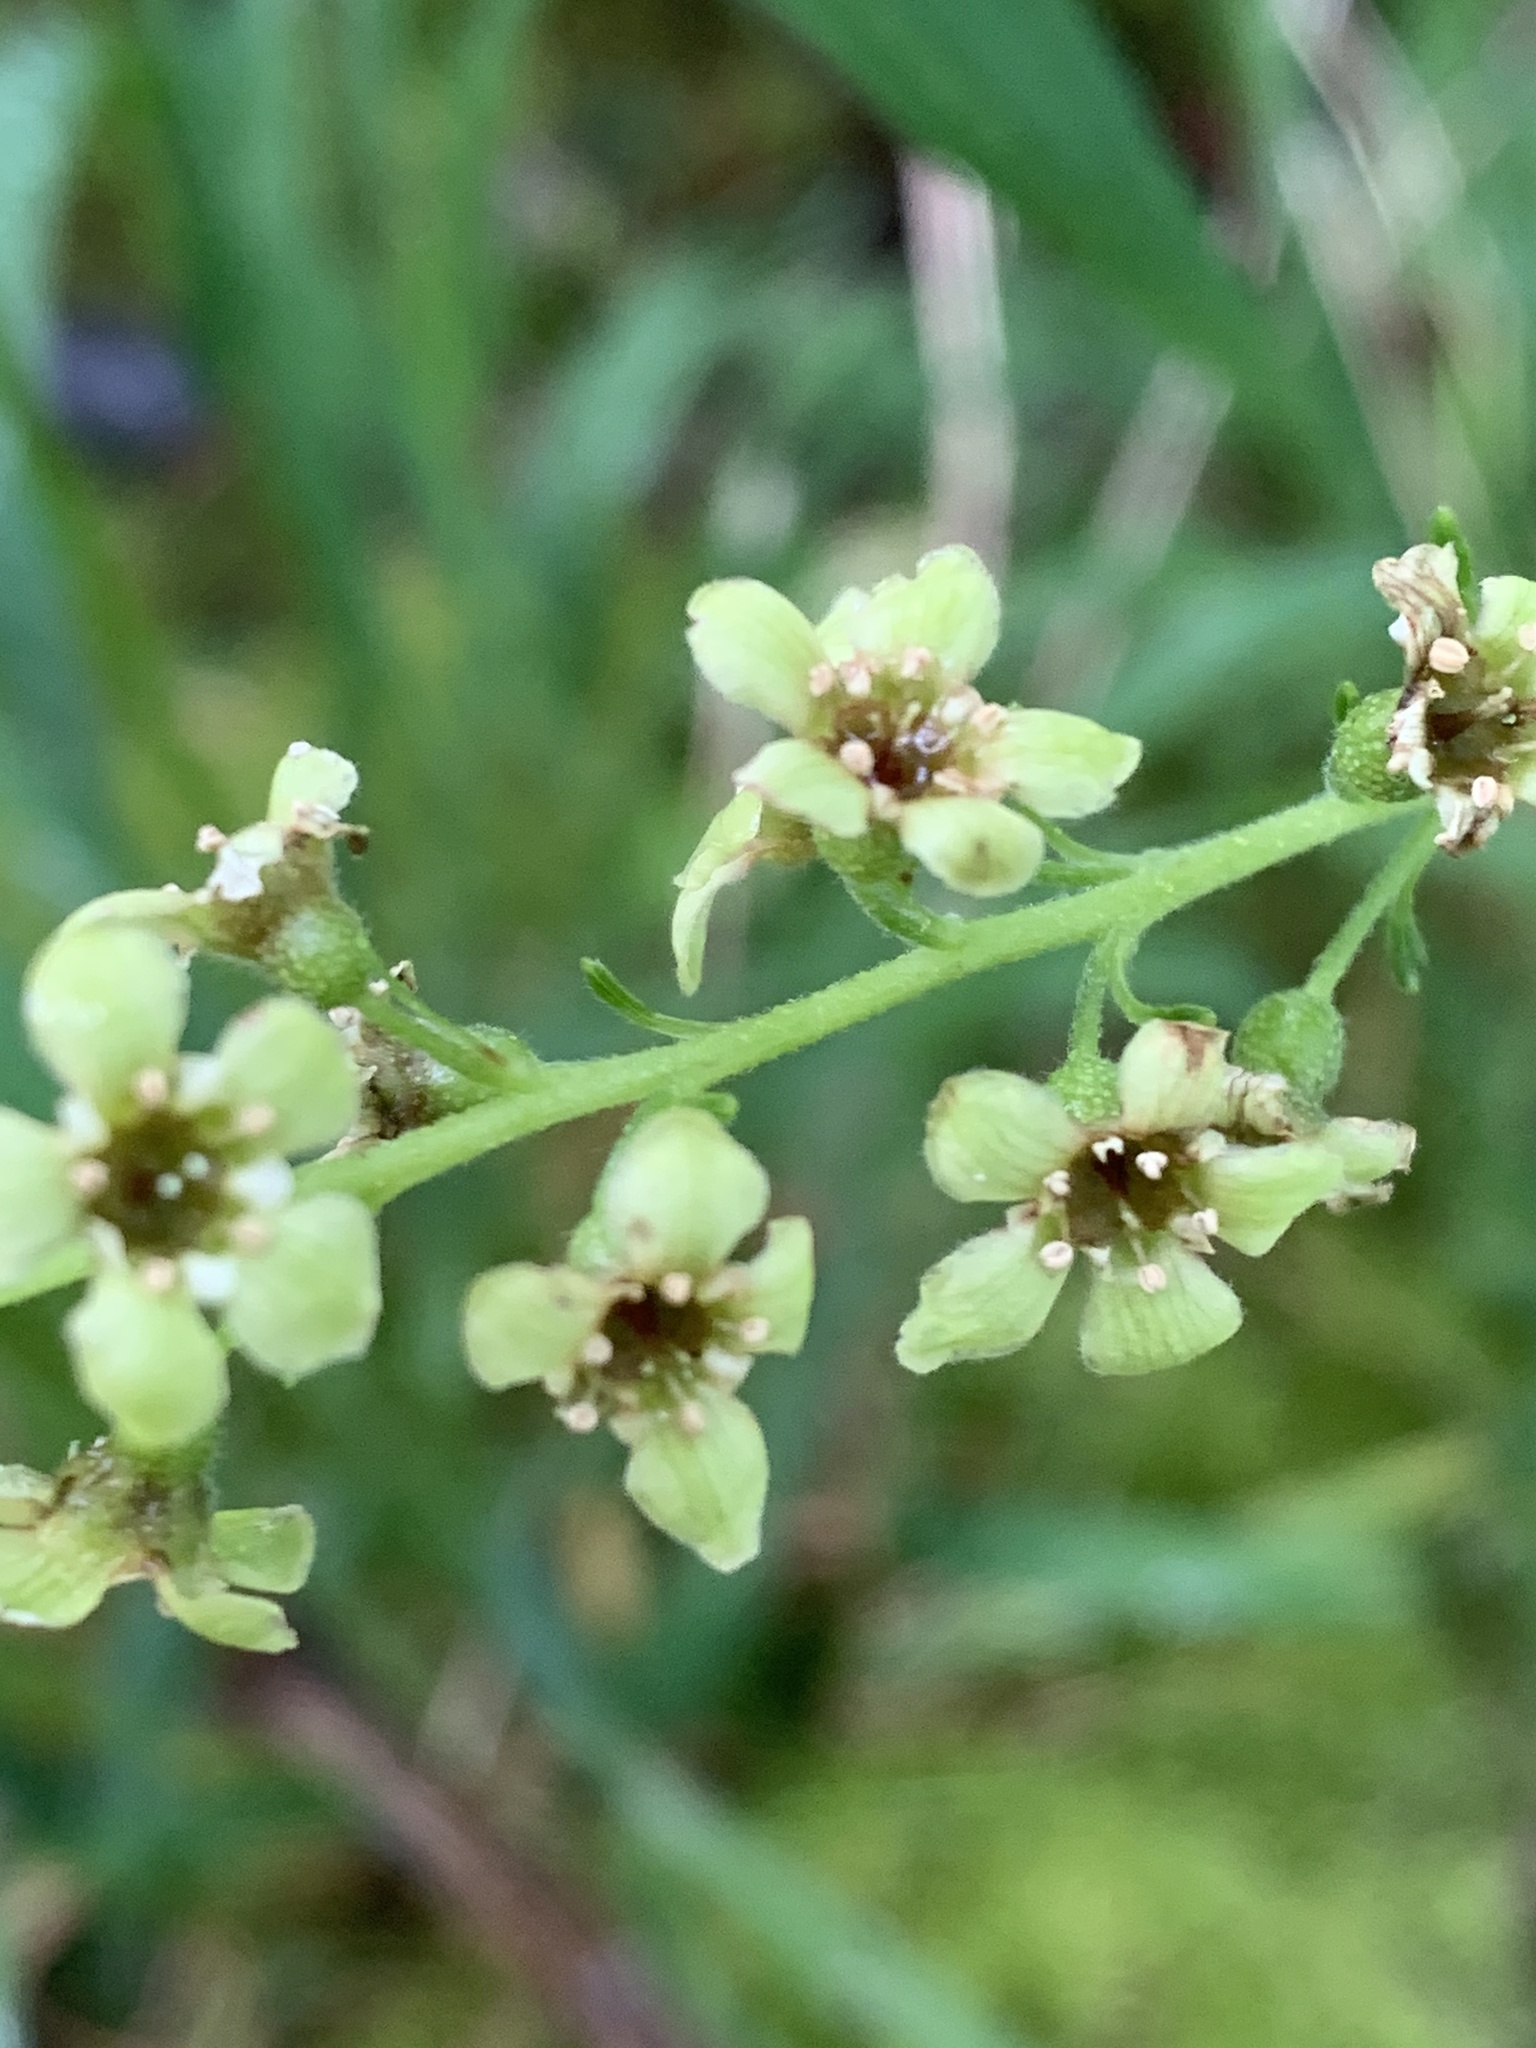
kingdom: Plantae
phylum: Tracheophyta
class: Magnoliopsida
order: Saxifragales
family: Grossulariaceae
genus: Ribes
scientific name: Ribes bracteosum
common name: California black currant
